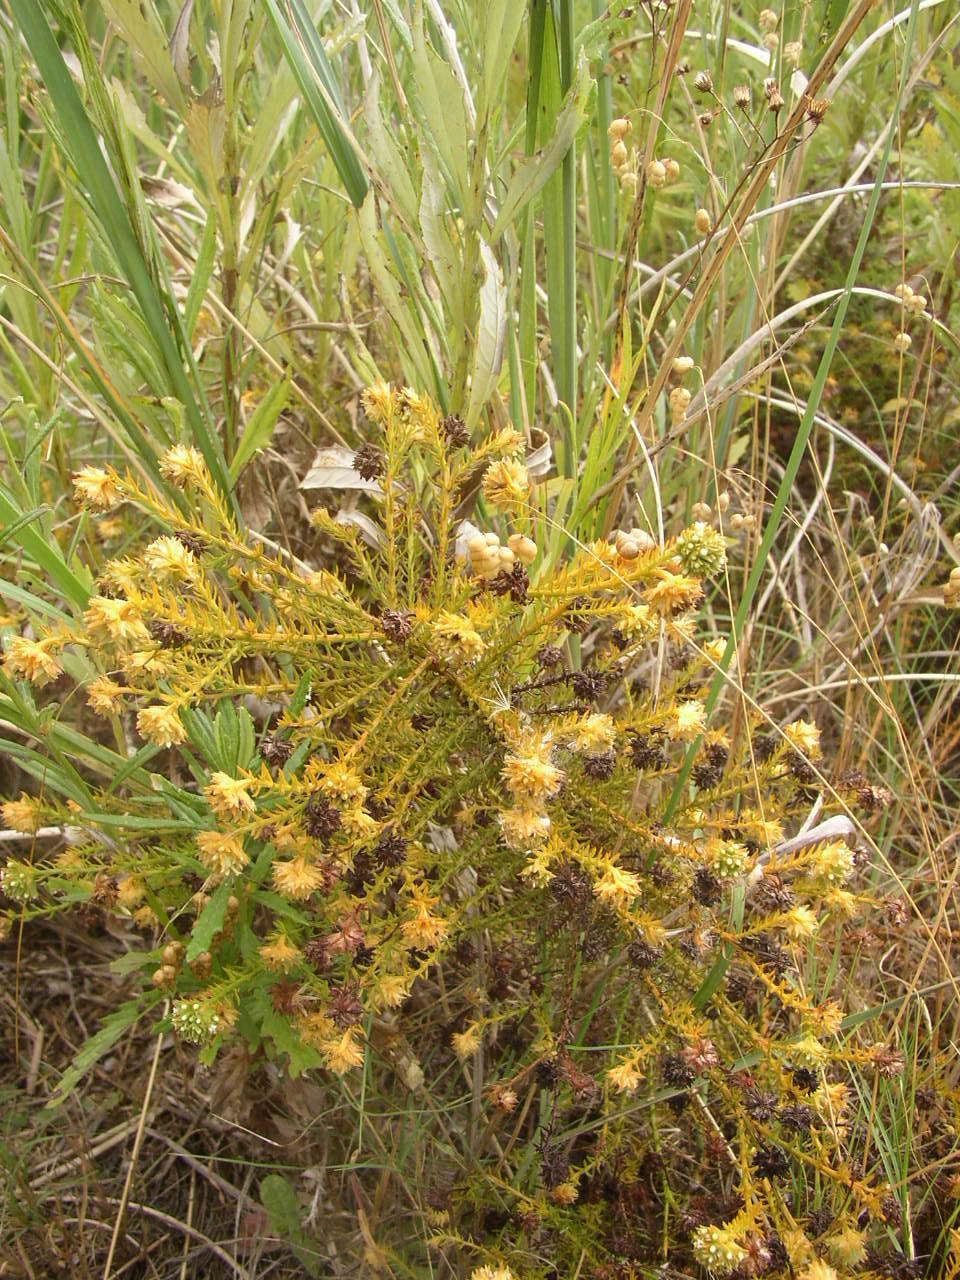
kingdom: Plantae
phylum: Tracheophyta
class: Magnoliopsida
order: Santalales
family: Thesiaceae
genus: Thesium
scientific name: Thesium scabrum
